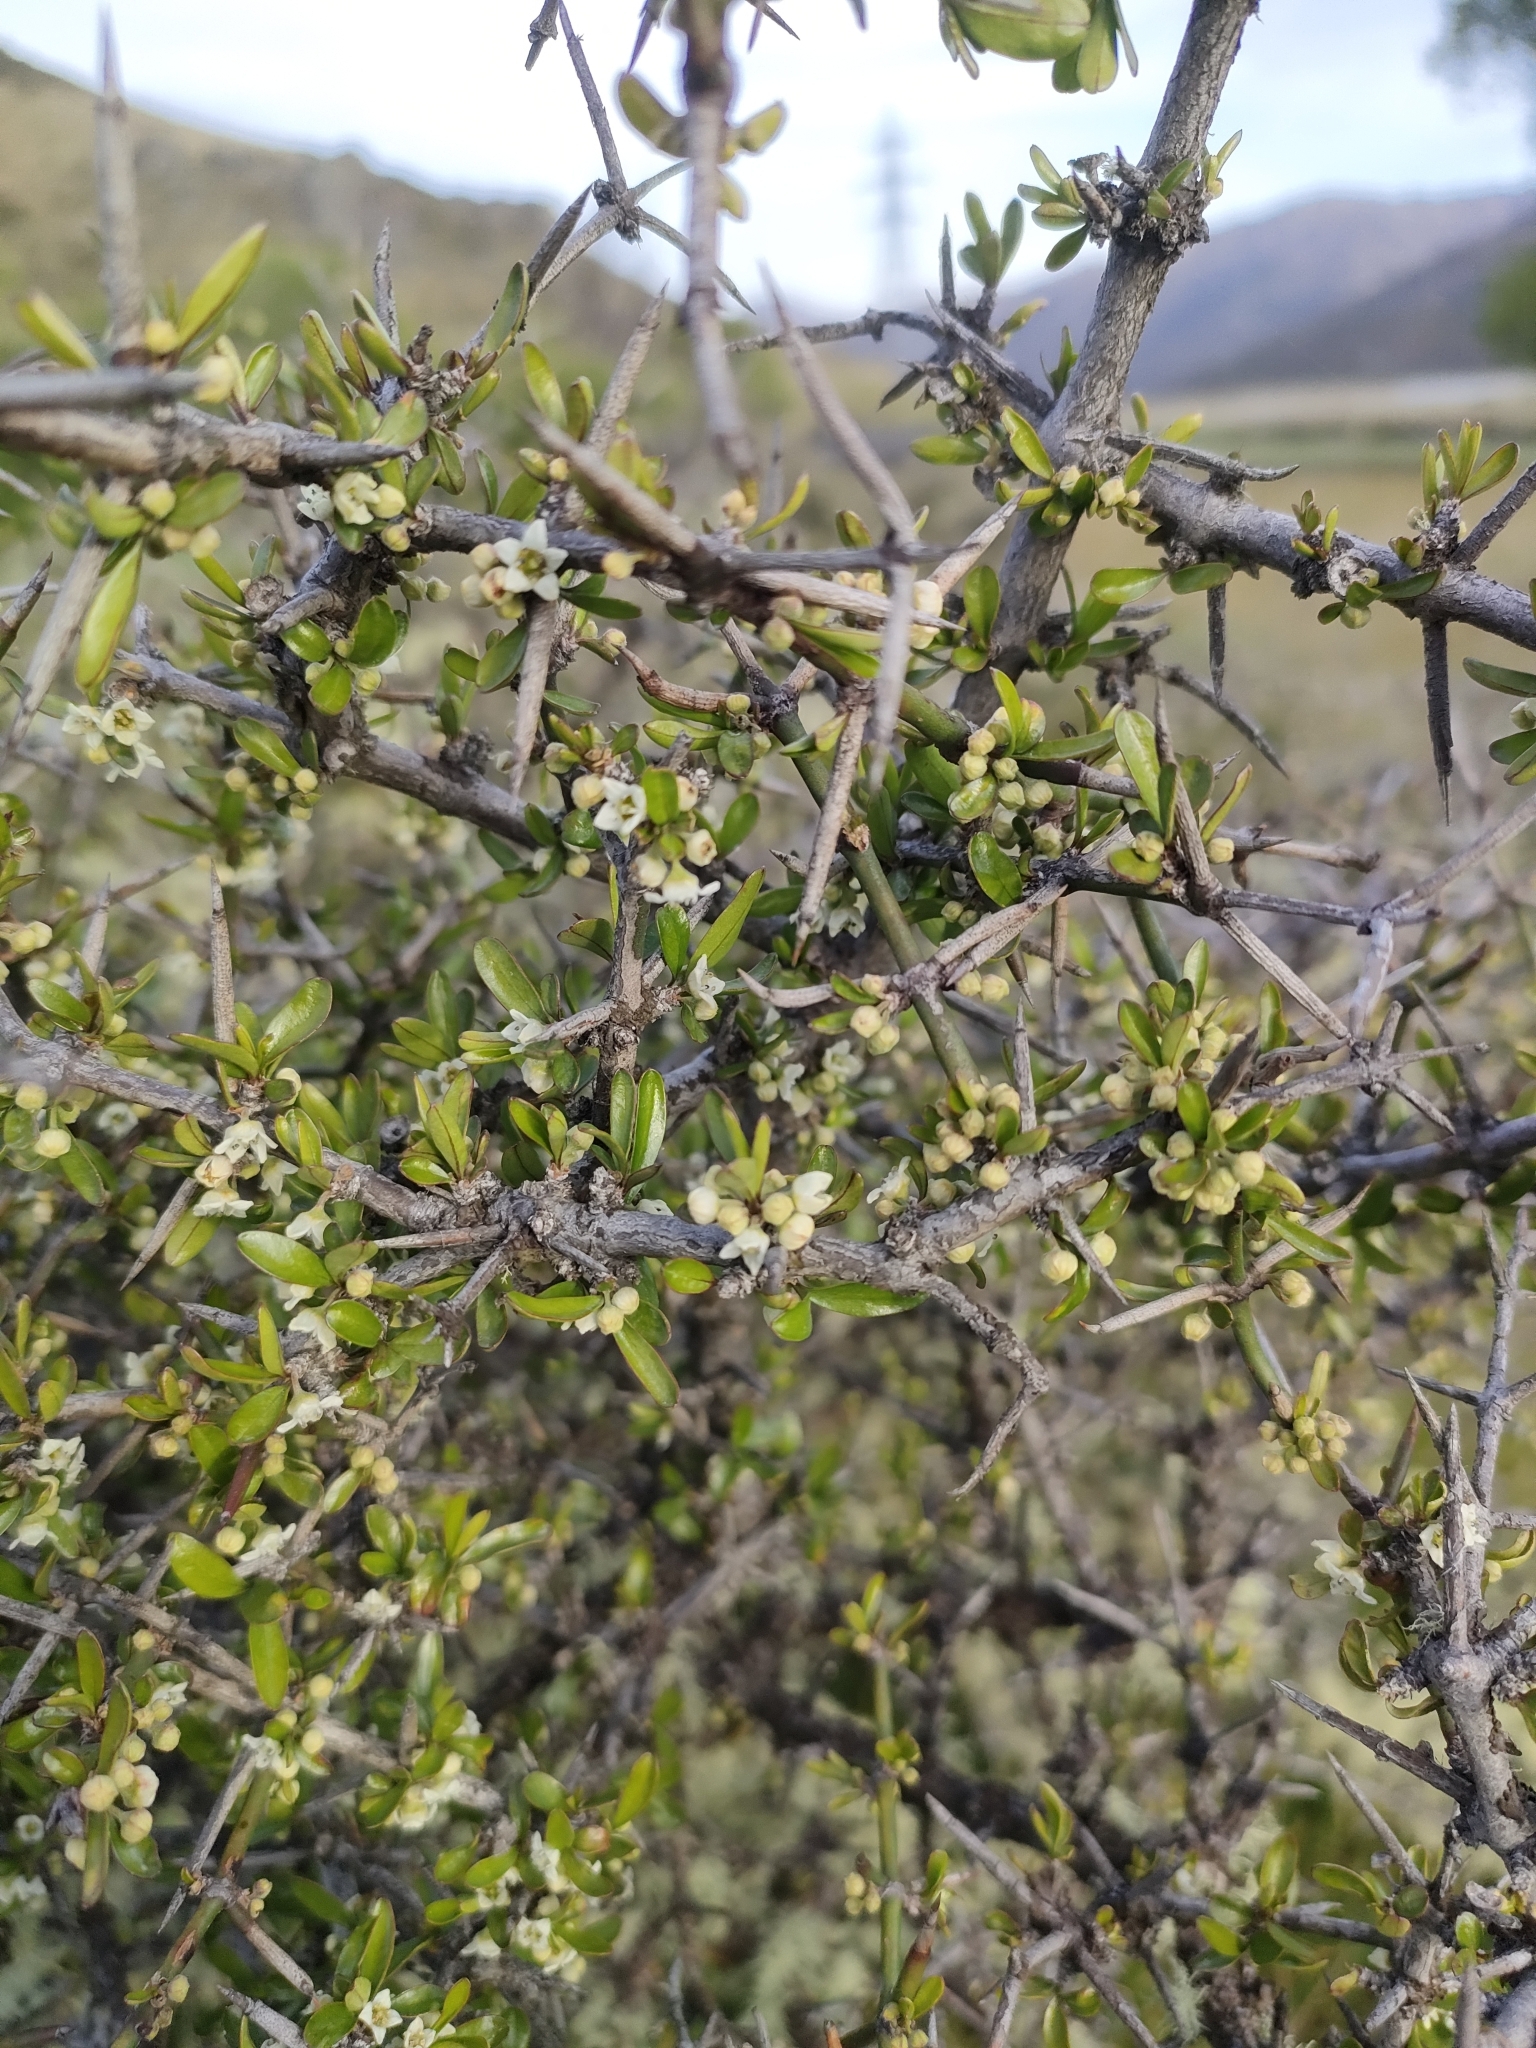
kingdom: Plantae
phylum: Tracheophyta
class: Magnoliopsida
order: Rosales
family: Rhamnaceae
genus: Discaria
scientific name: Discaria toumatou
